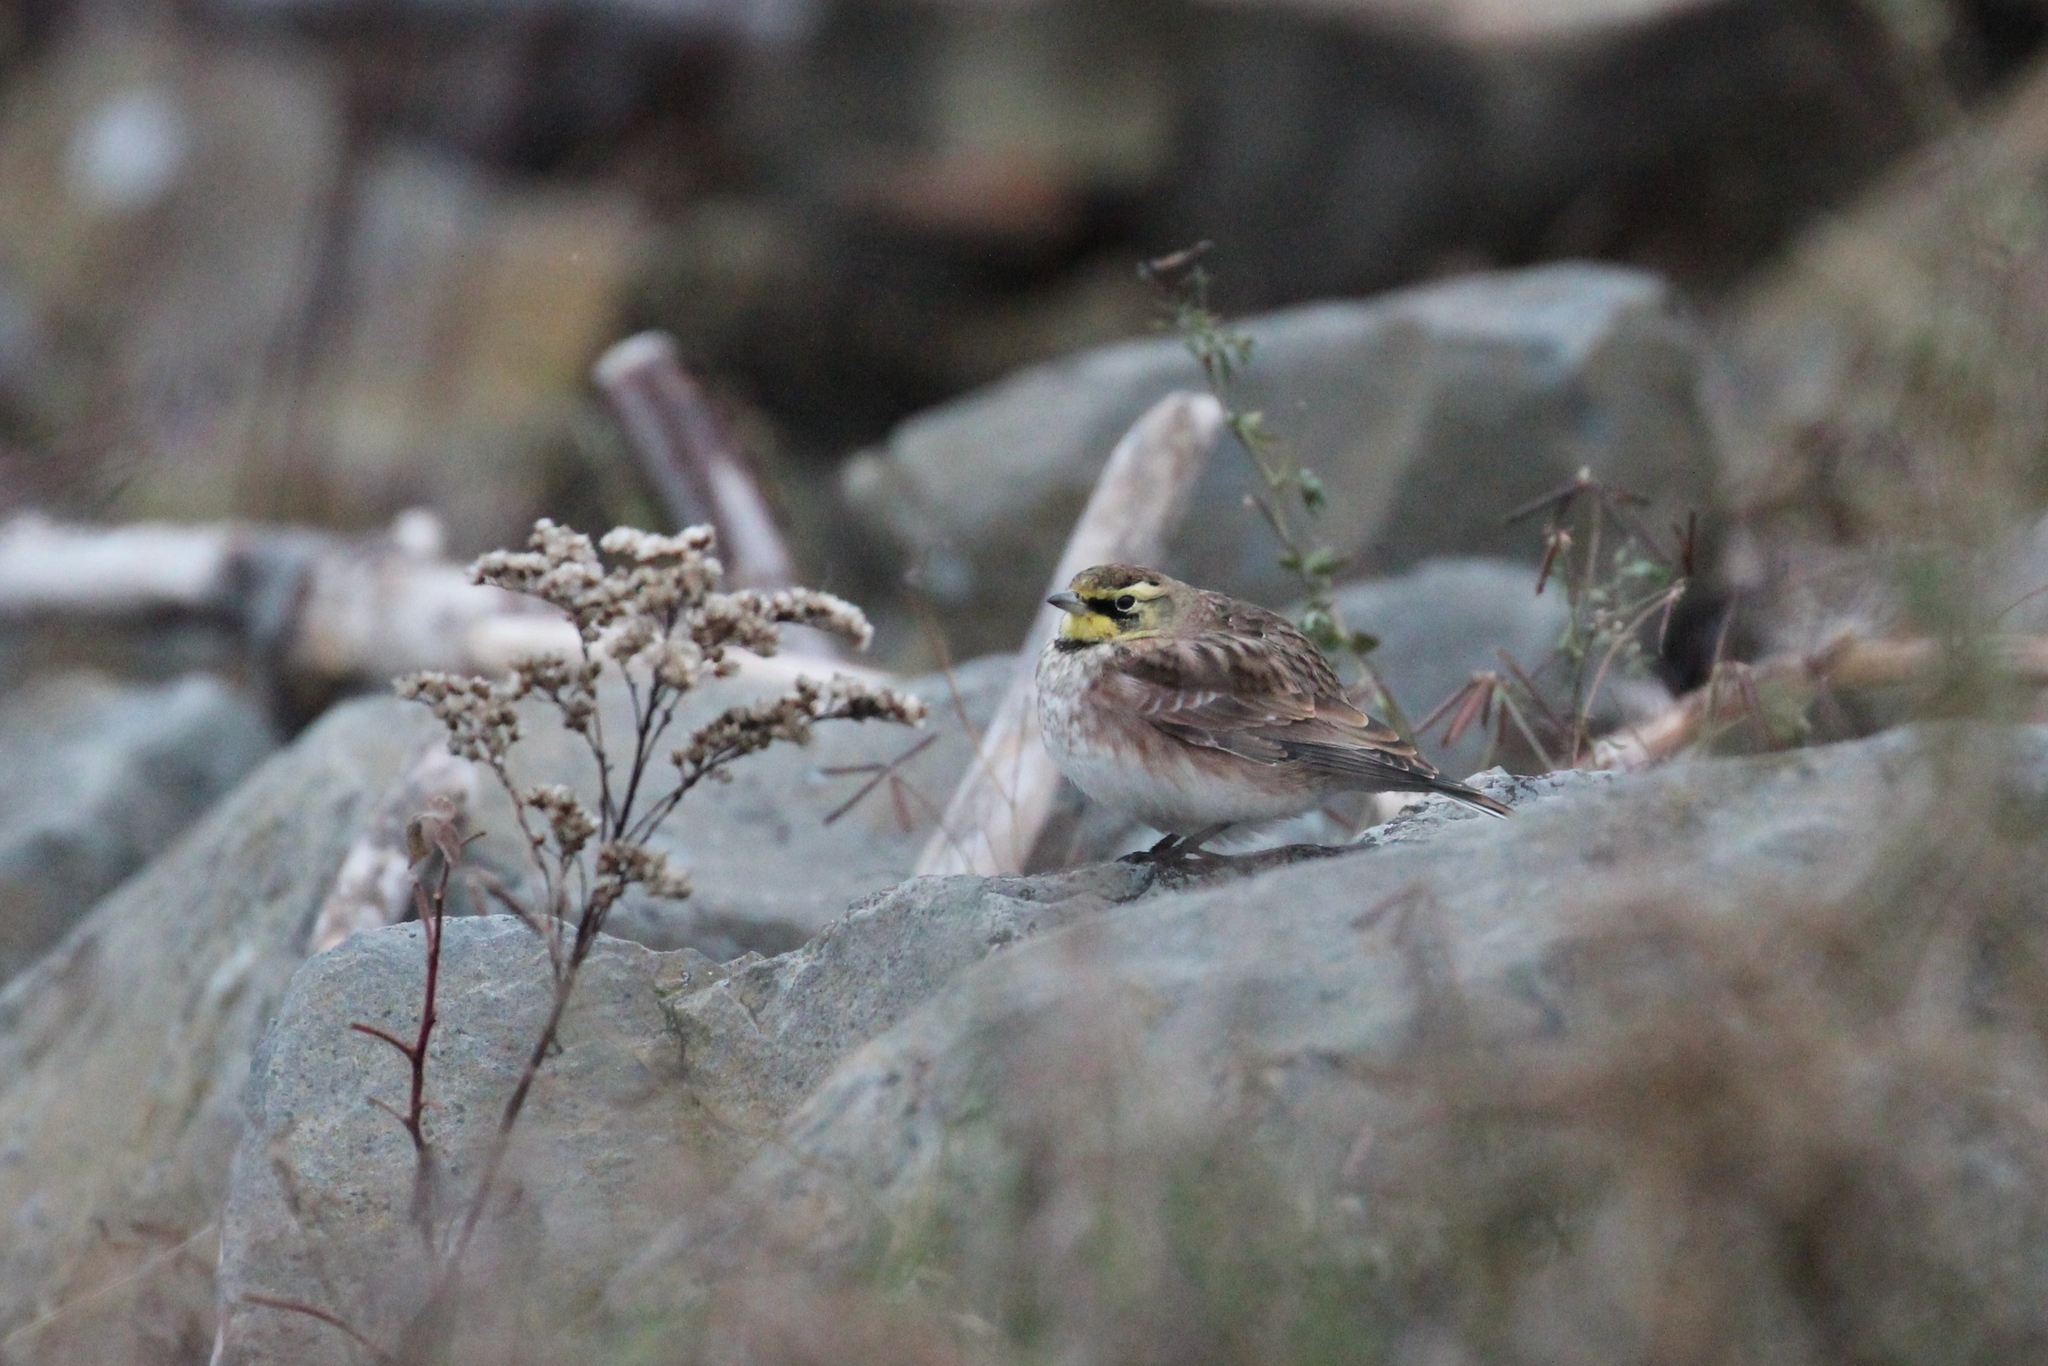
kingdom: Animalia
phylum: Chordata
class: Aves
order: Passeriformes
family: Alaudidae
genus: Eremophila
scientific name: Eremophila alpestris
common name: Horned lark
